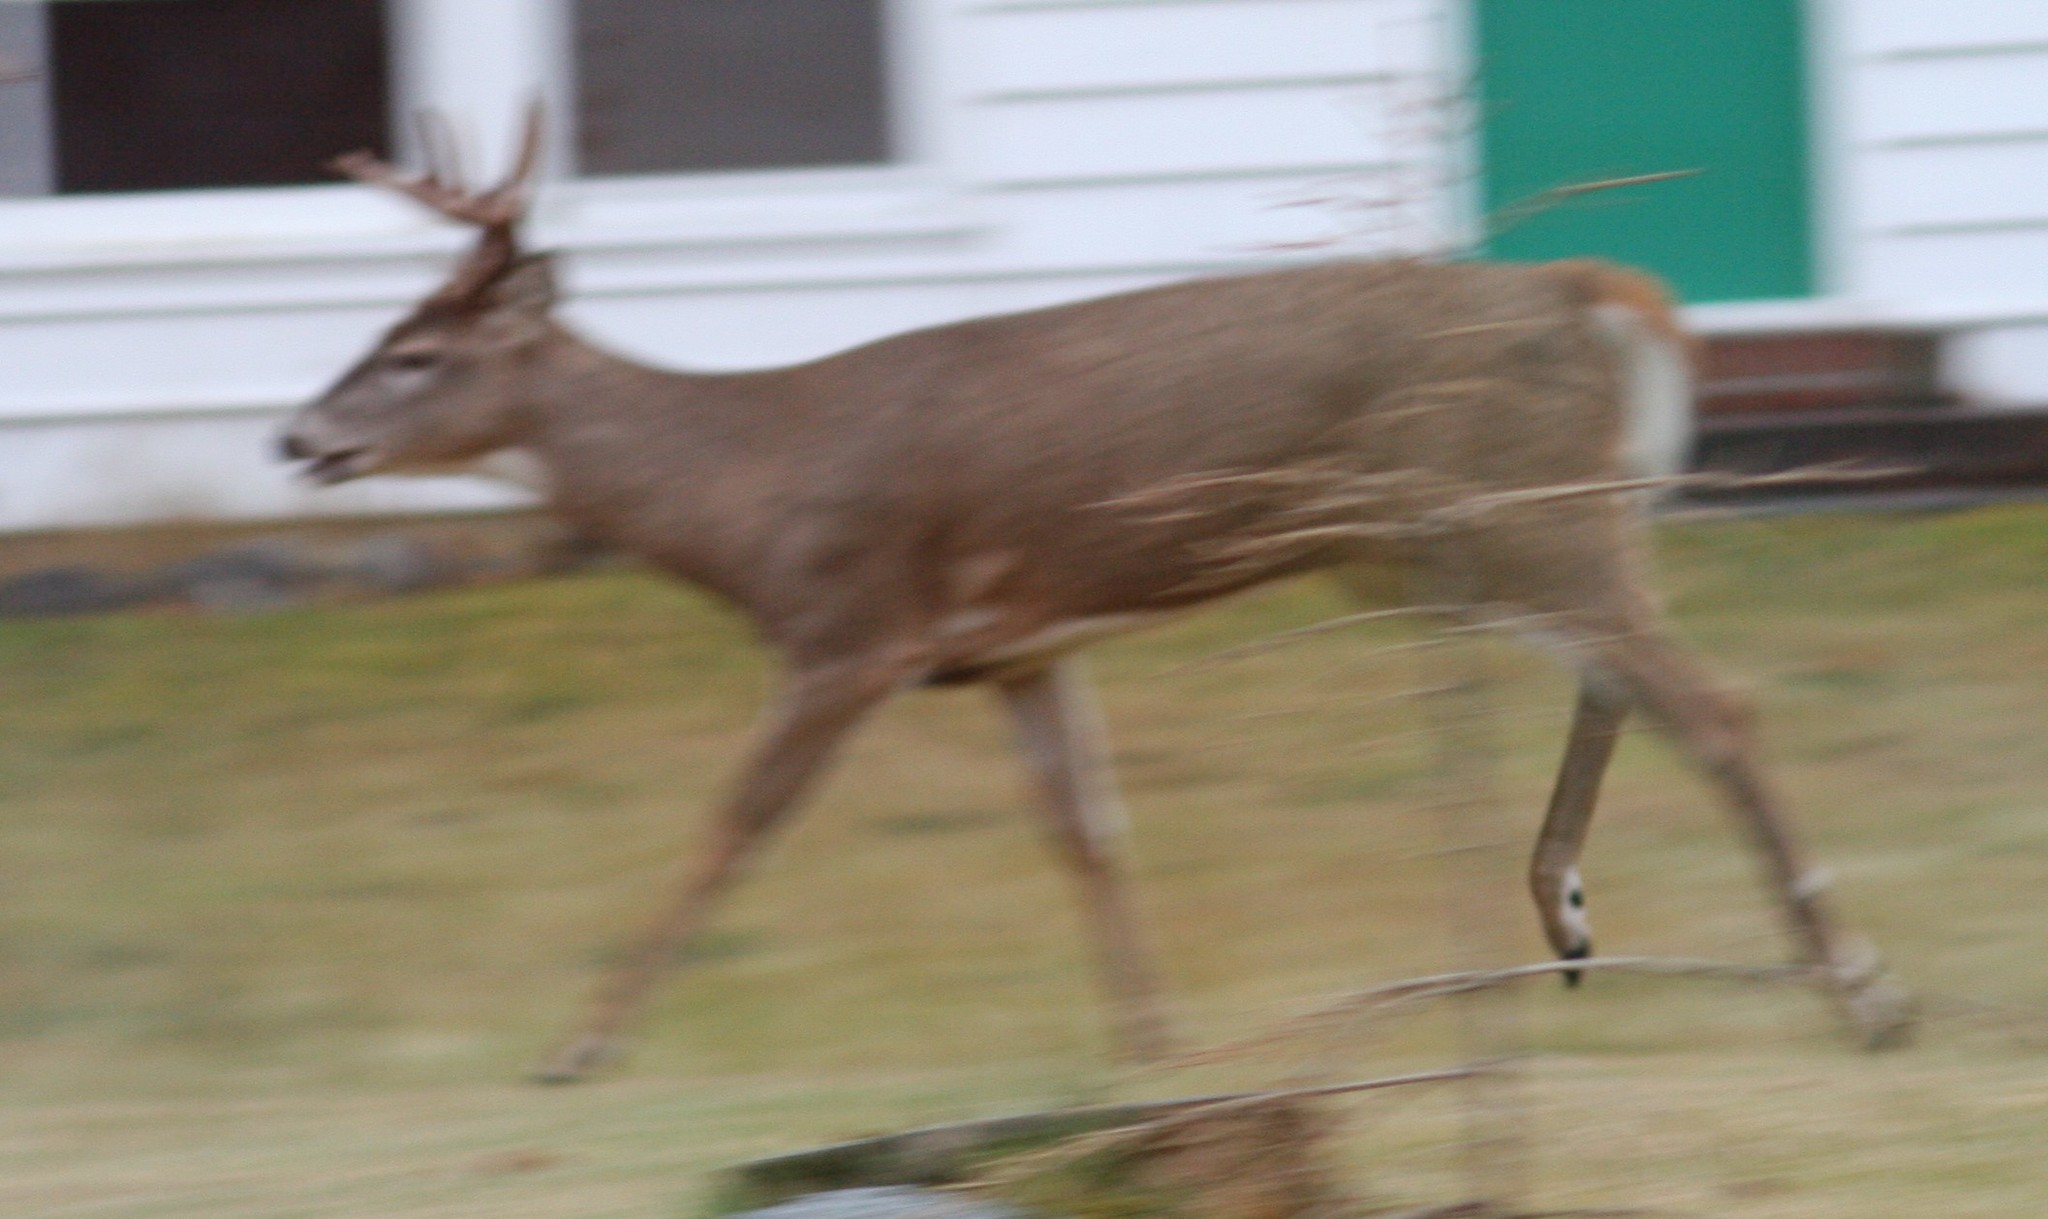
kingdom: Animalia
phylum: Chordata
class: Mammalia
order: Artiodactyla
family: Cervidae
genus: Odocoileus
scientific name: Odocoileus virginianus
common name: White-tailed deer
